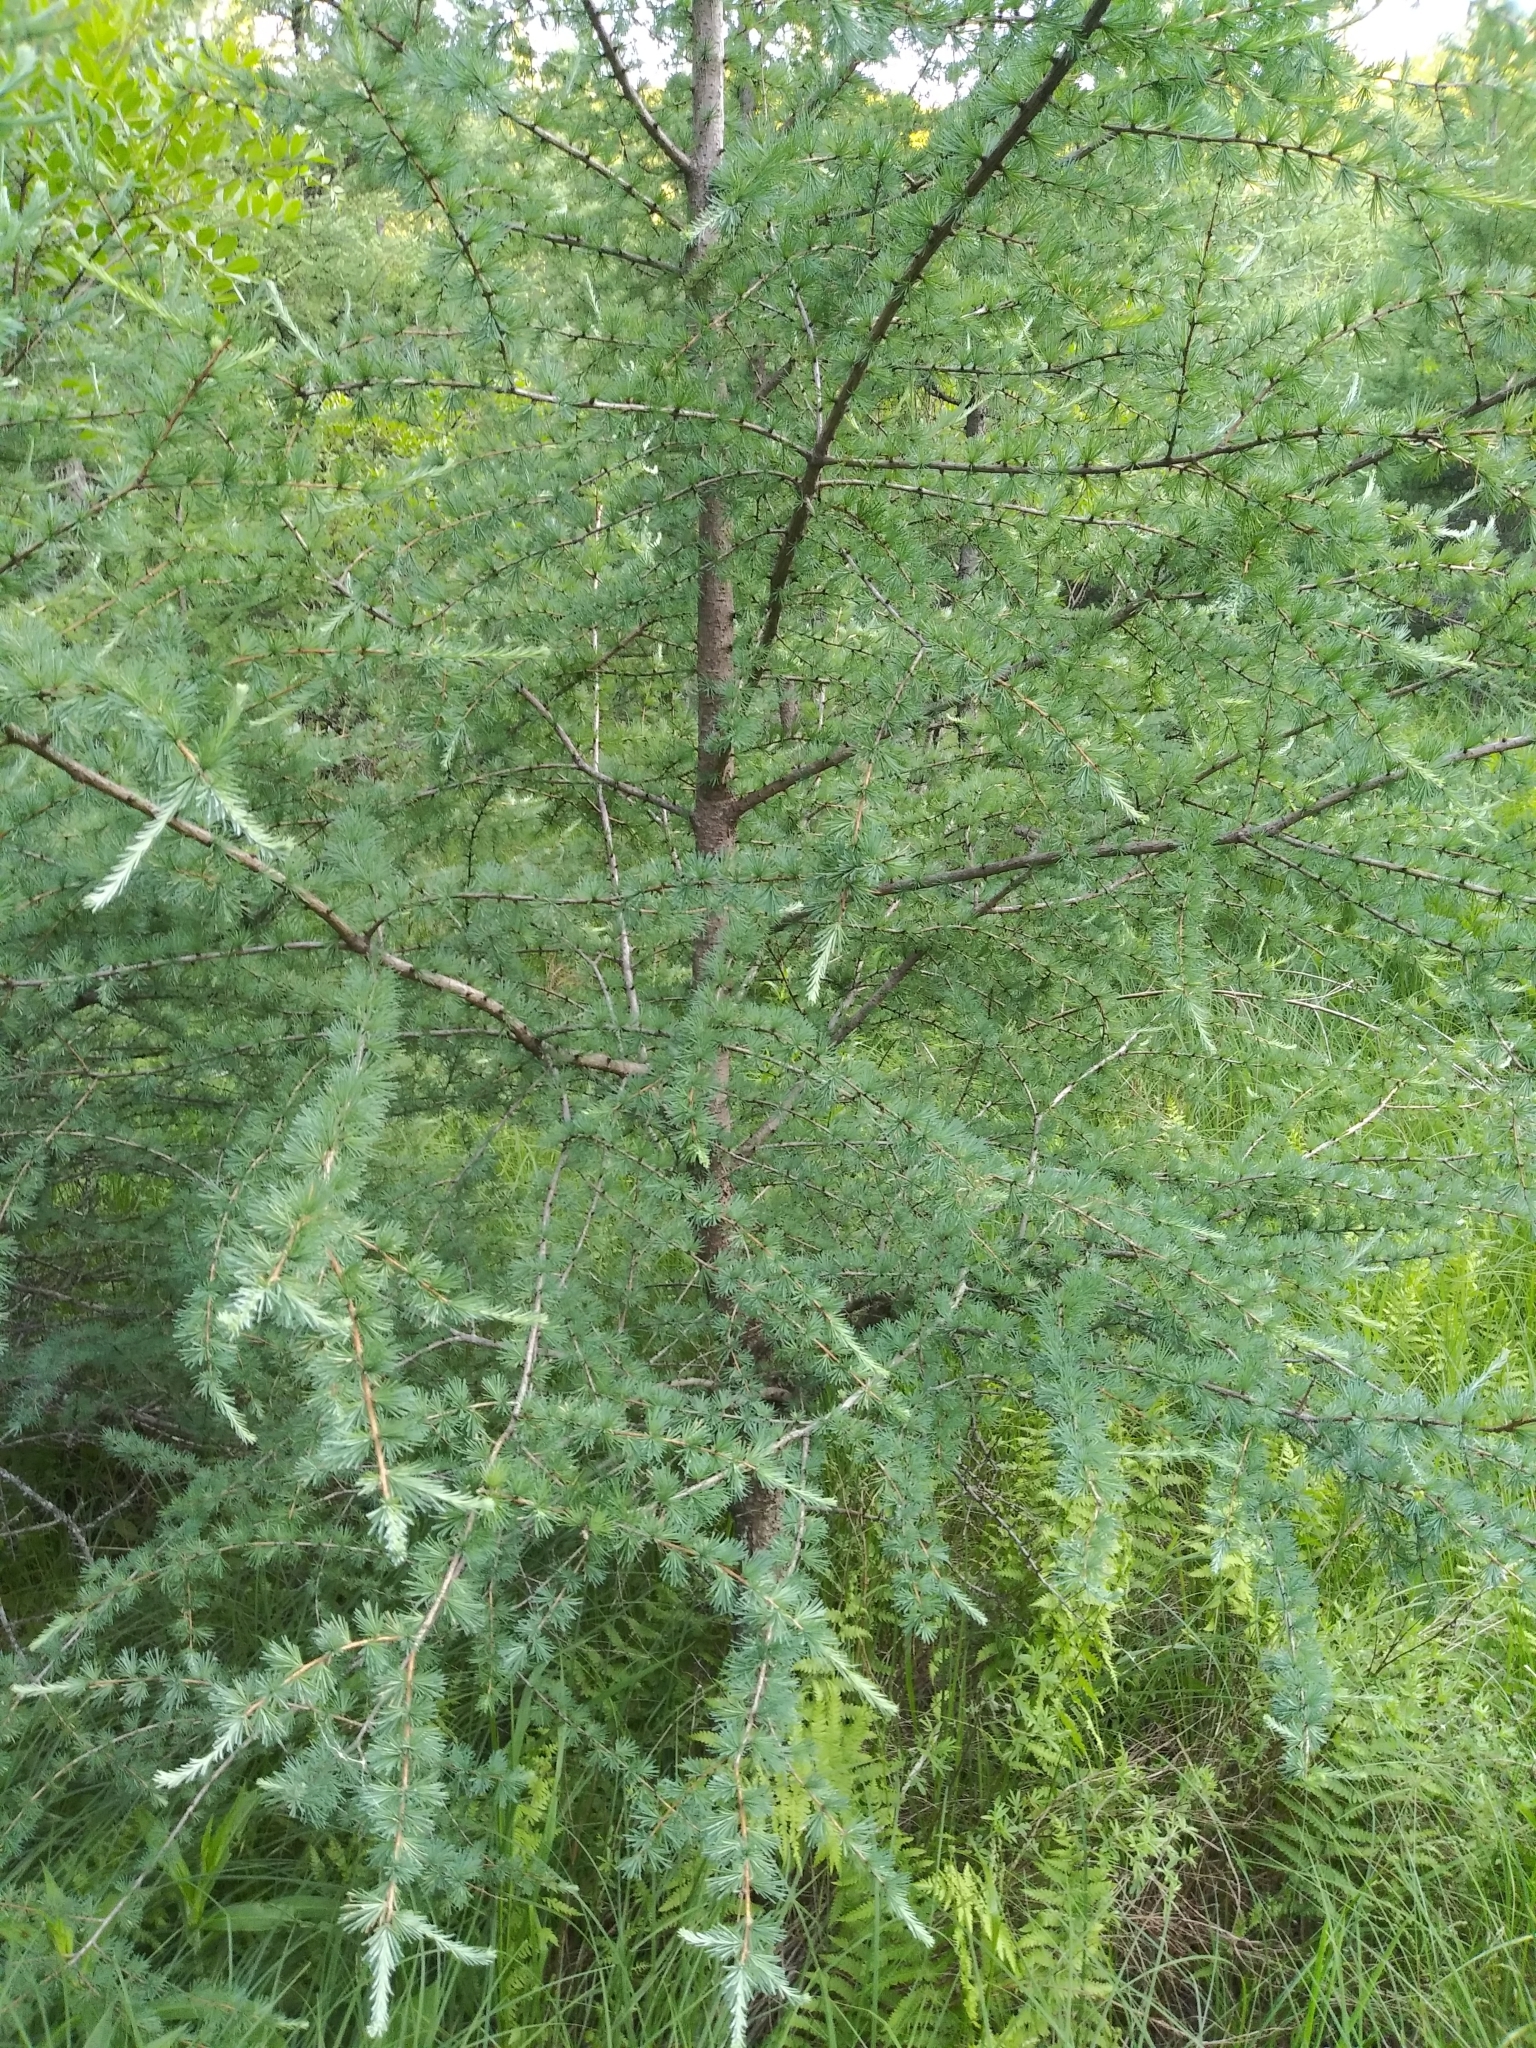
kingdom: Plantae
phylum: Tracheophyta
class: Pinopsida
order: Pinales
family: Pinaceae
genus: Larix
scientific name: Larix laricina
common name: American larch
